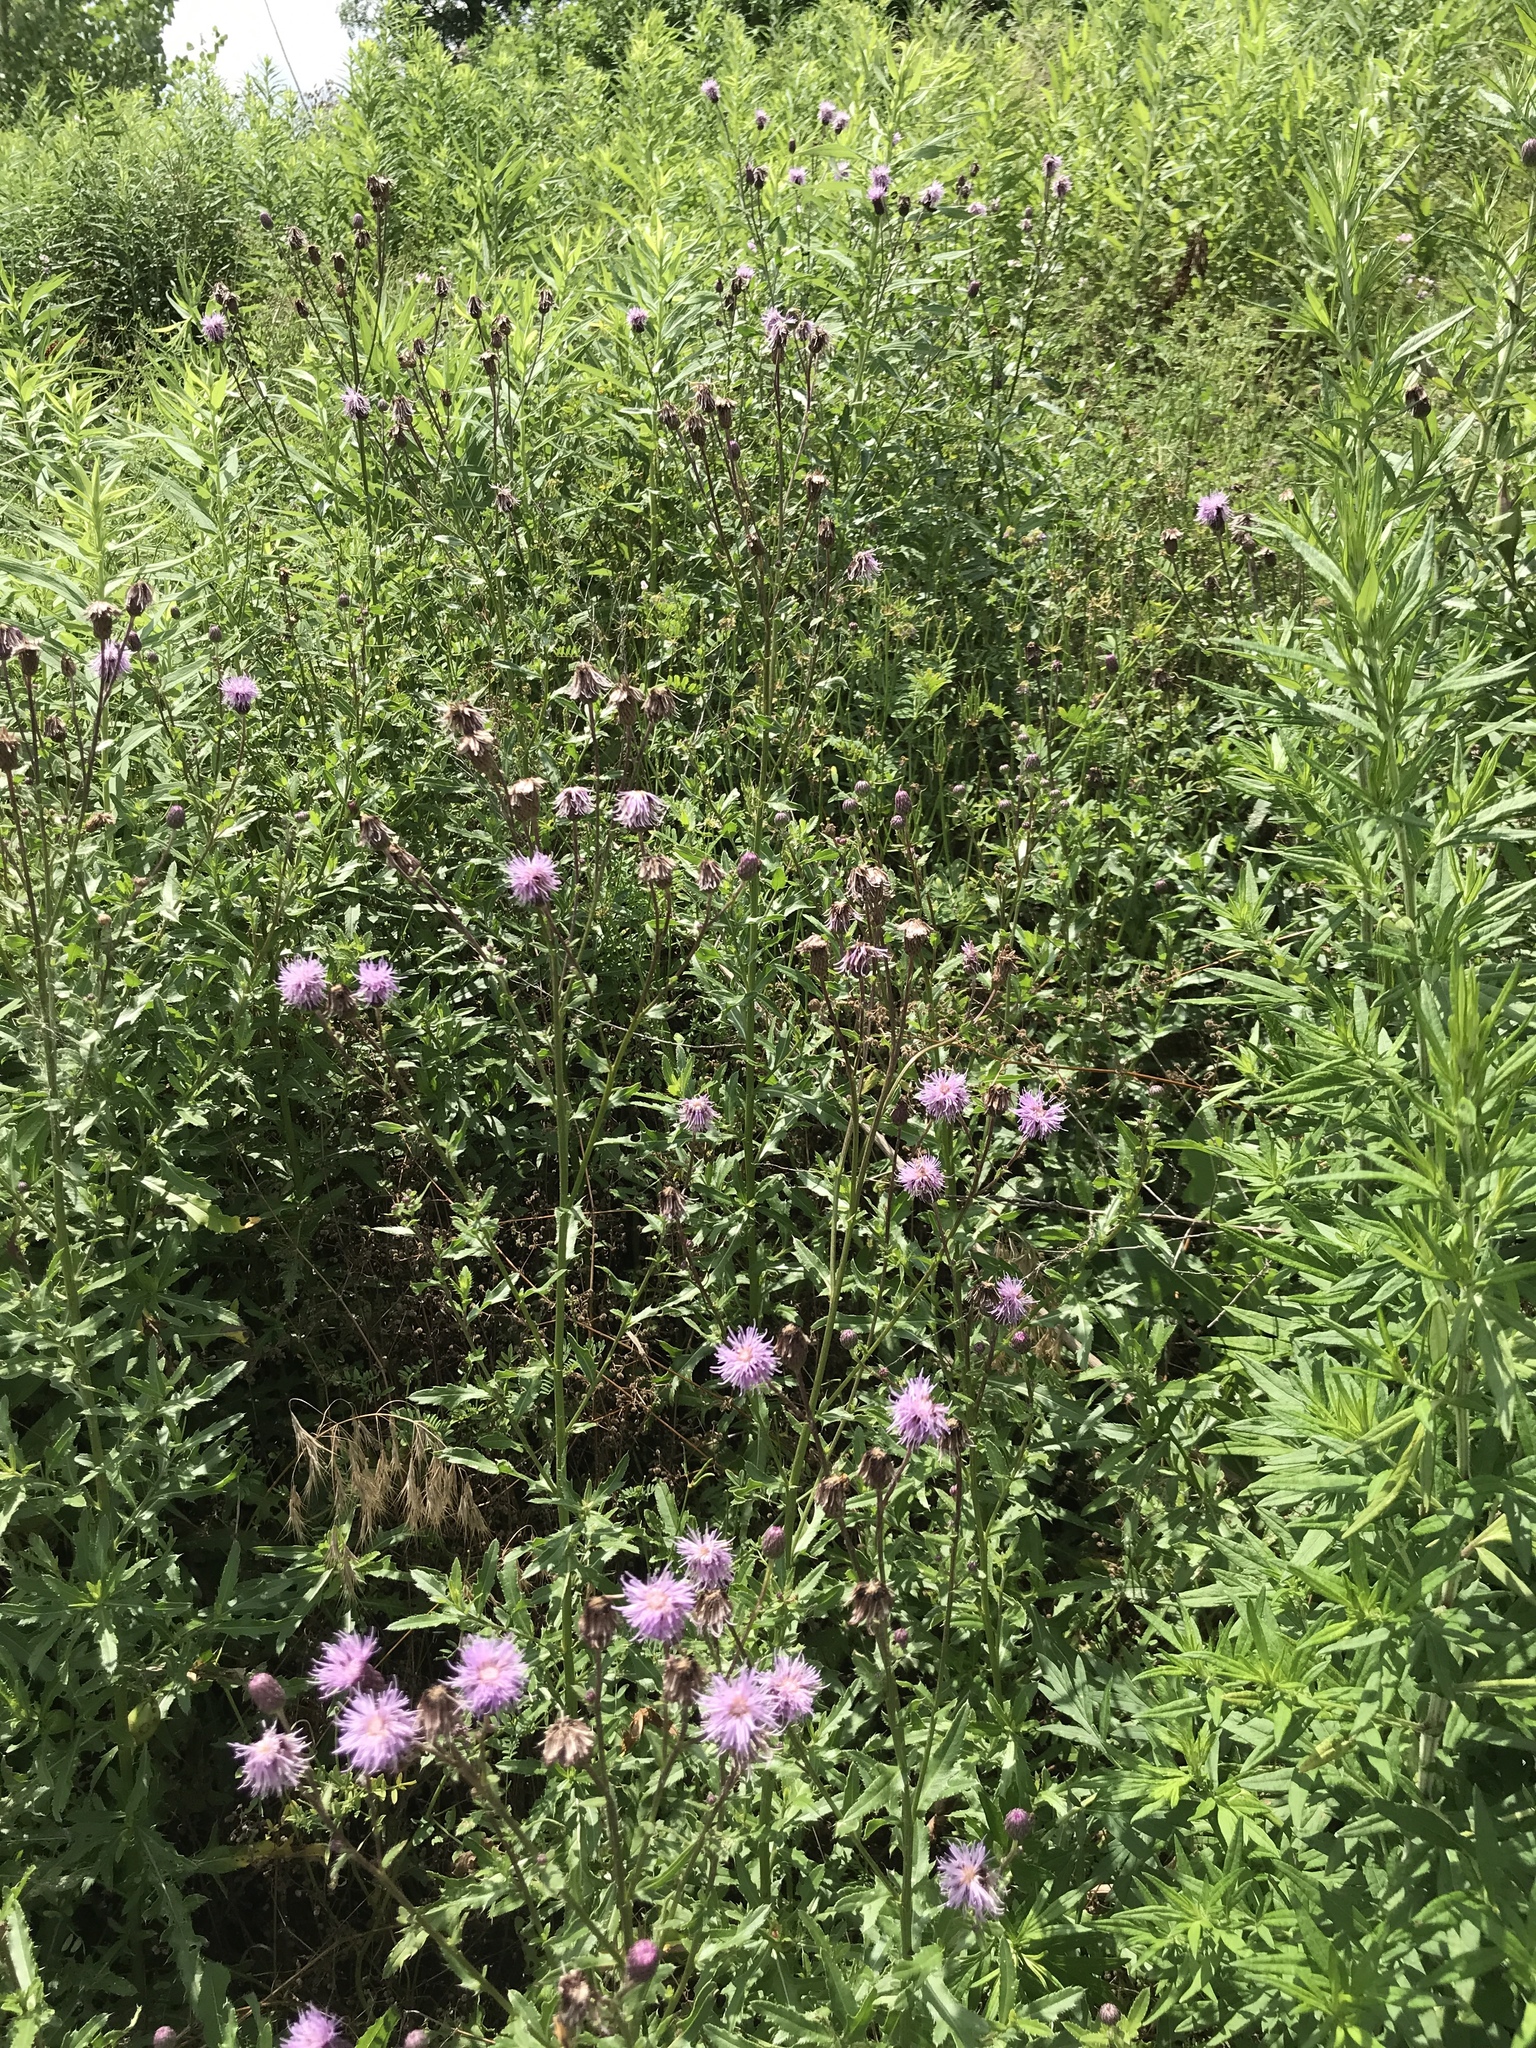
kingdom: Plantae
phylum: Tracheophyta
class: Magnoliopsida
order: Asterales
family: Asteraceae
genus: Cirsium
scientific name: Cirsium arvense
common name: Creeping thistle
